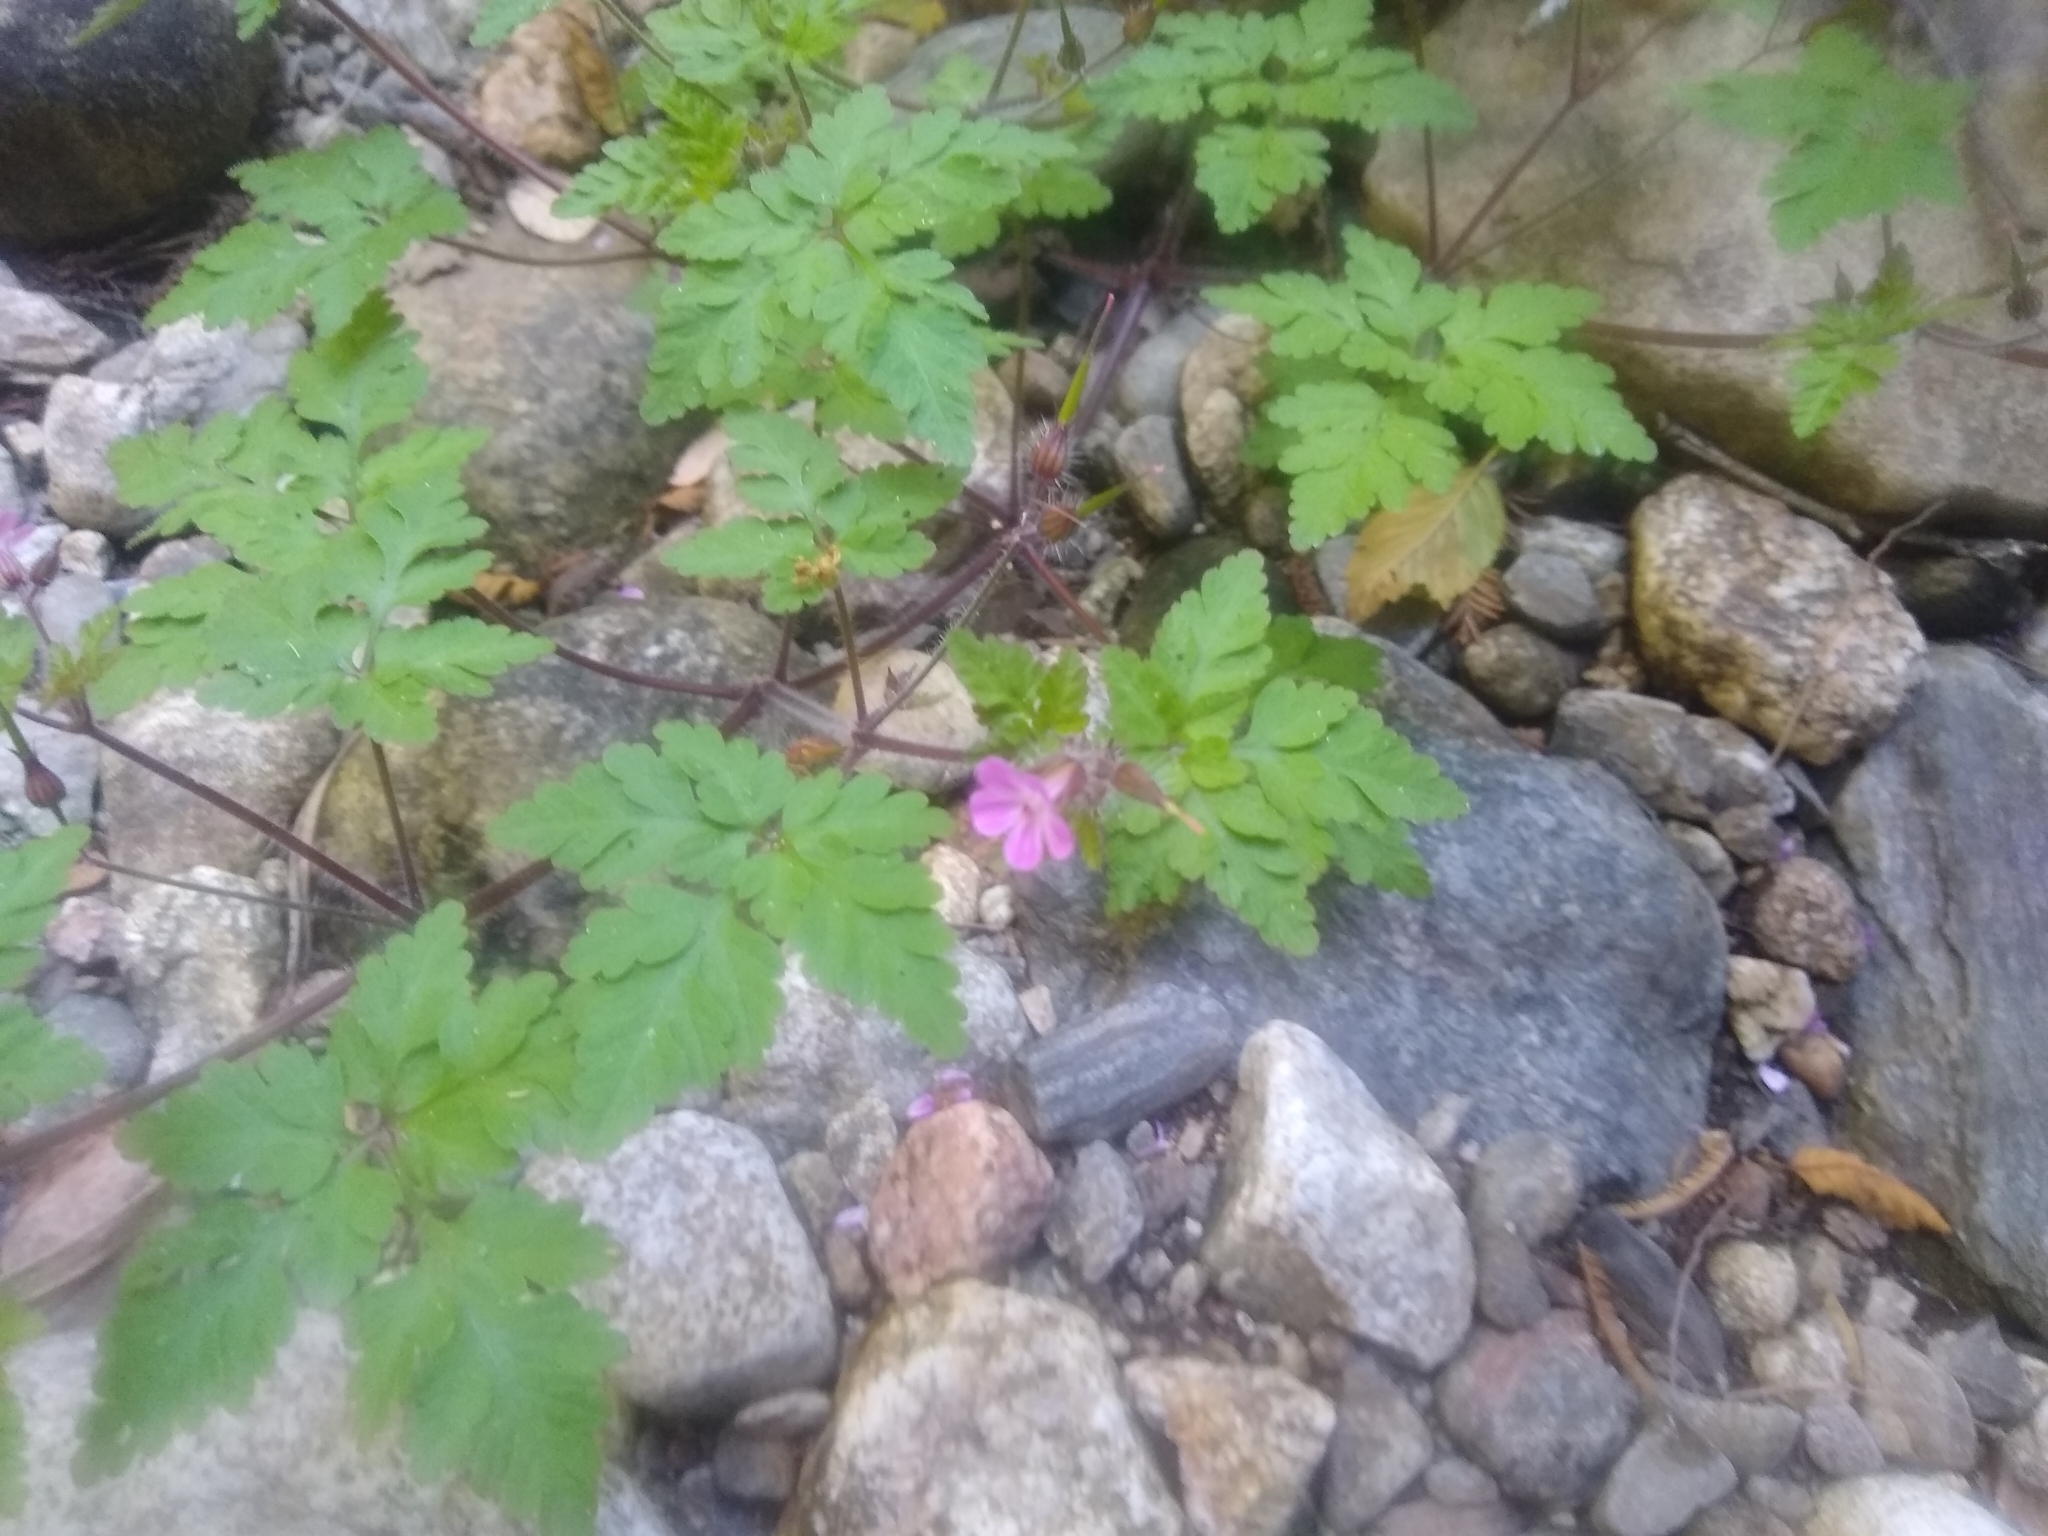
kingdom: Plantae
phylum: Tracheophyta
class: Magnoliopsida
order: Geraniales
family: Geraniaceae
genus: Geranium
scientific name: Geranium robertianum
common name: Herb-robert
